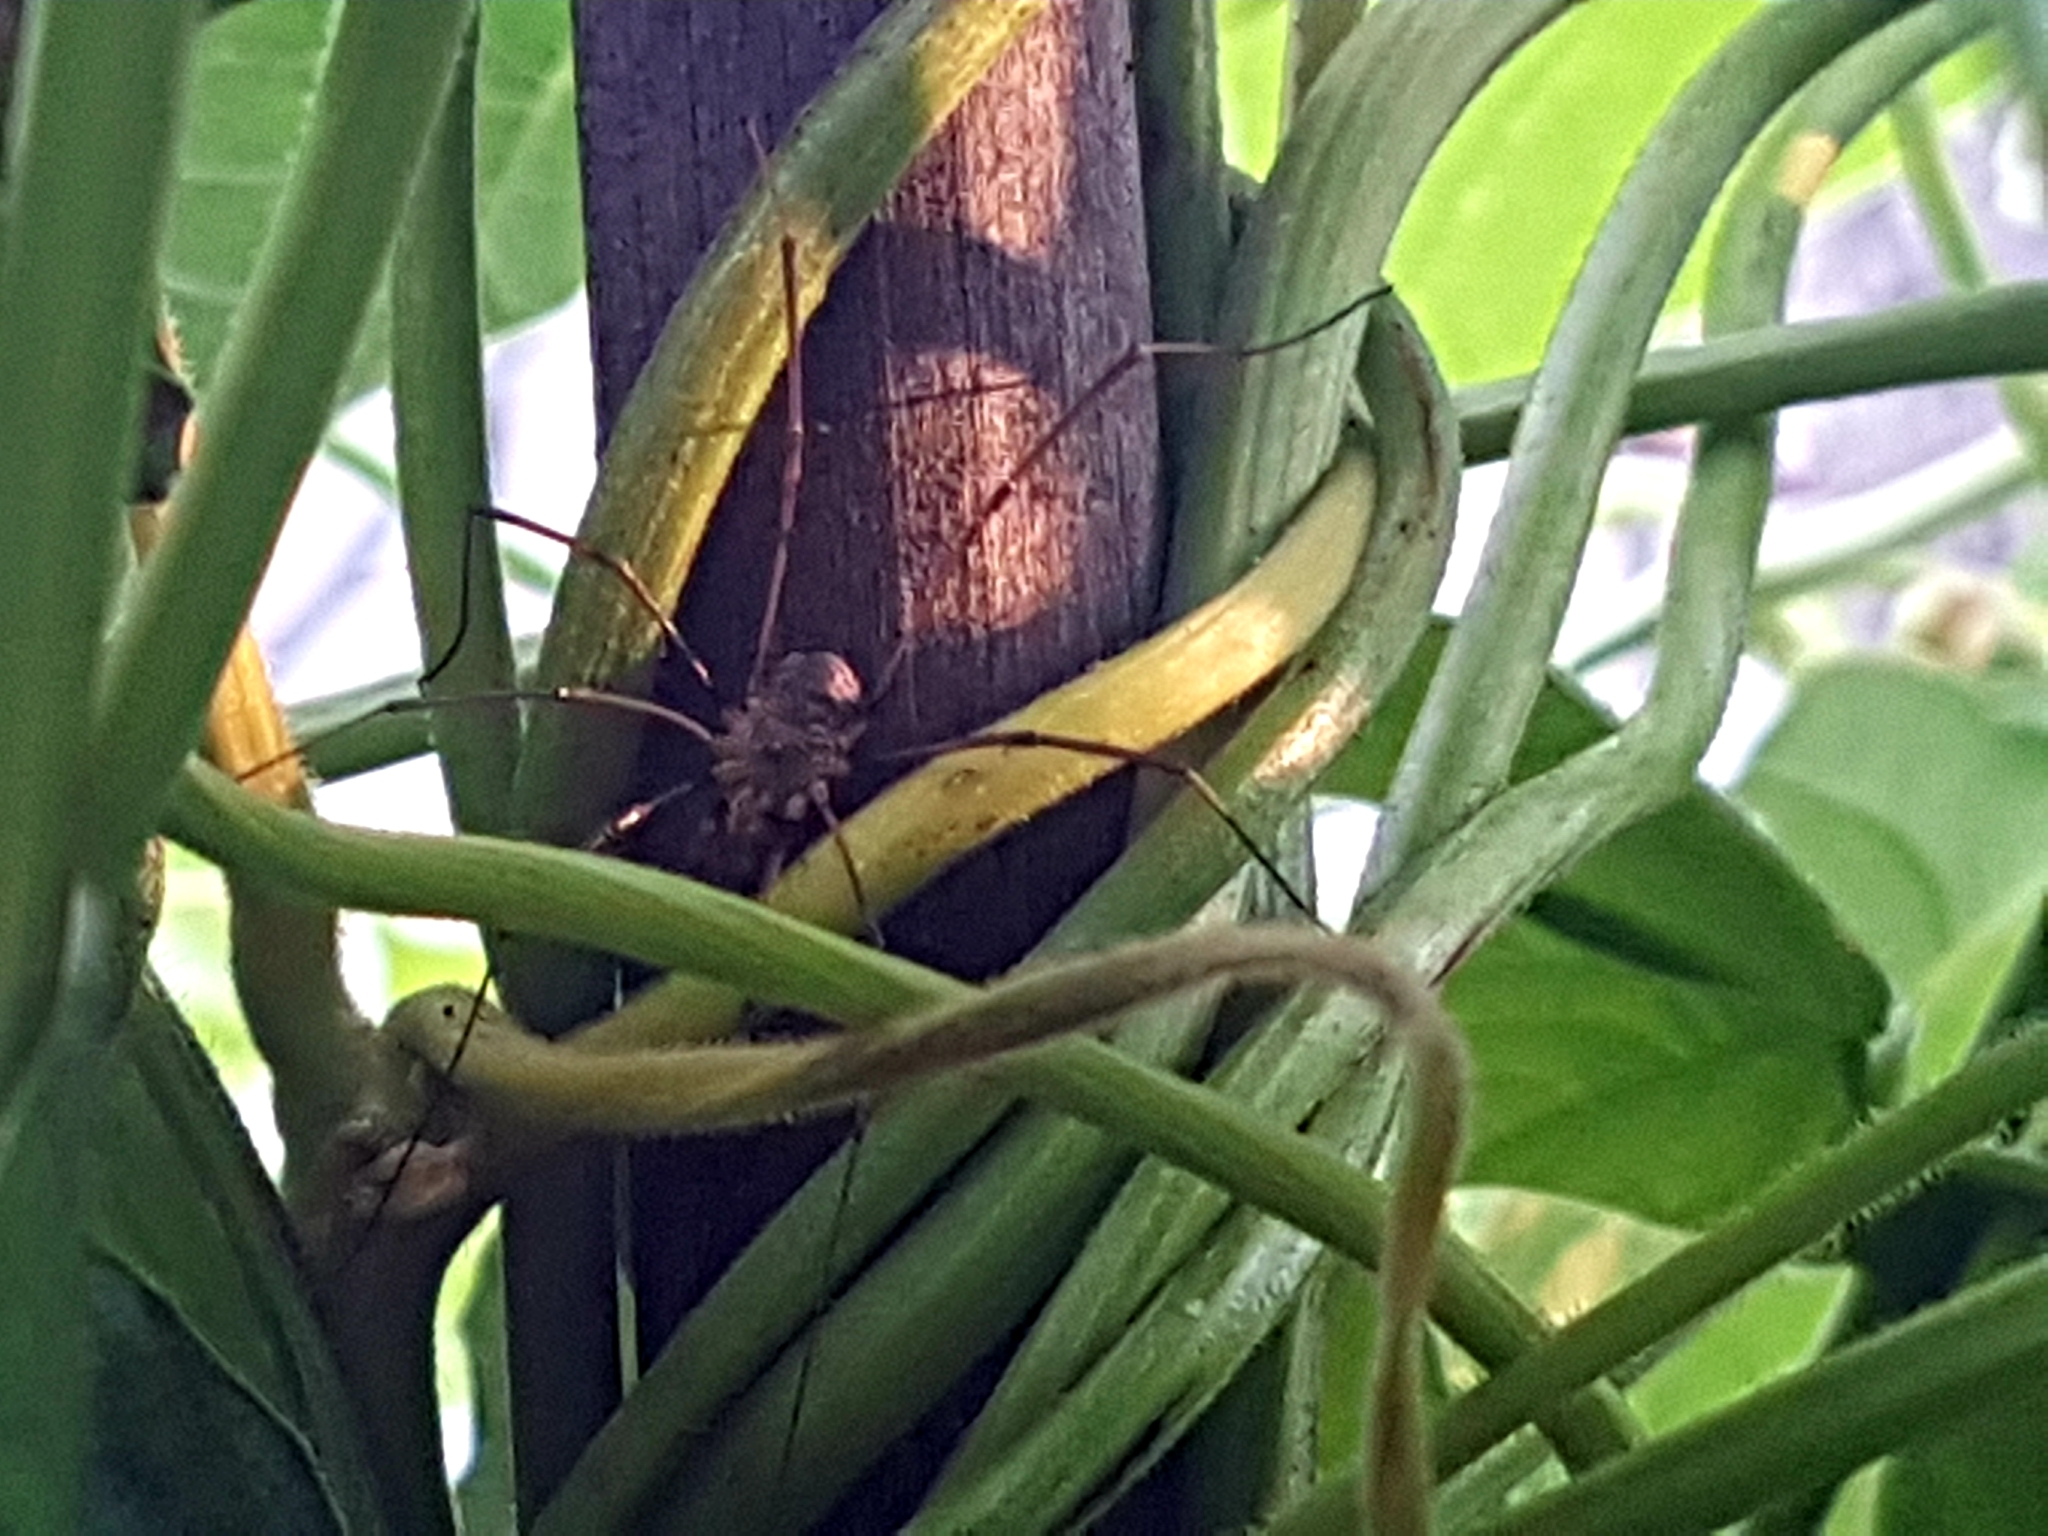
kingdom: Animalia
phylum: Arthropoda
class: Arachnida
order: Opiliones
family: Phalangiidae
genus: Phalangium
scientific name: Phalangium opilio
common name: Daddy longleg
